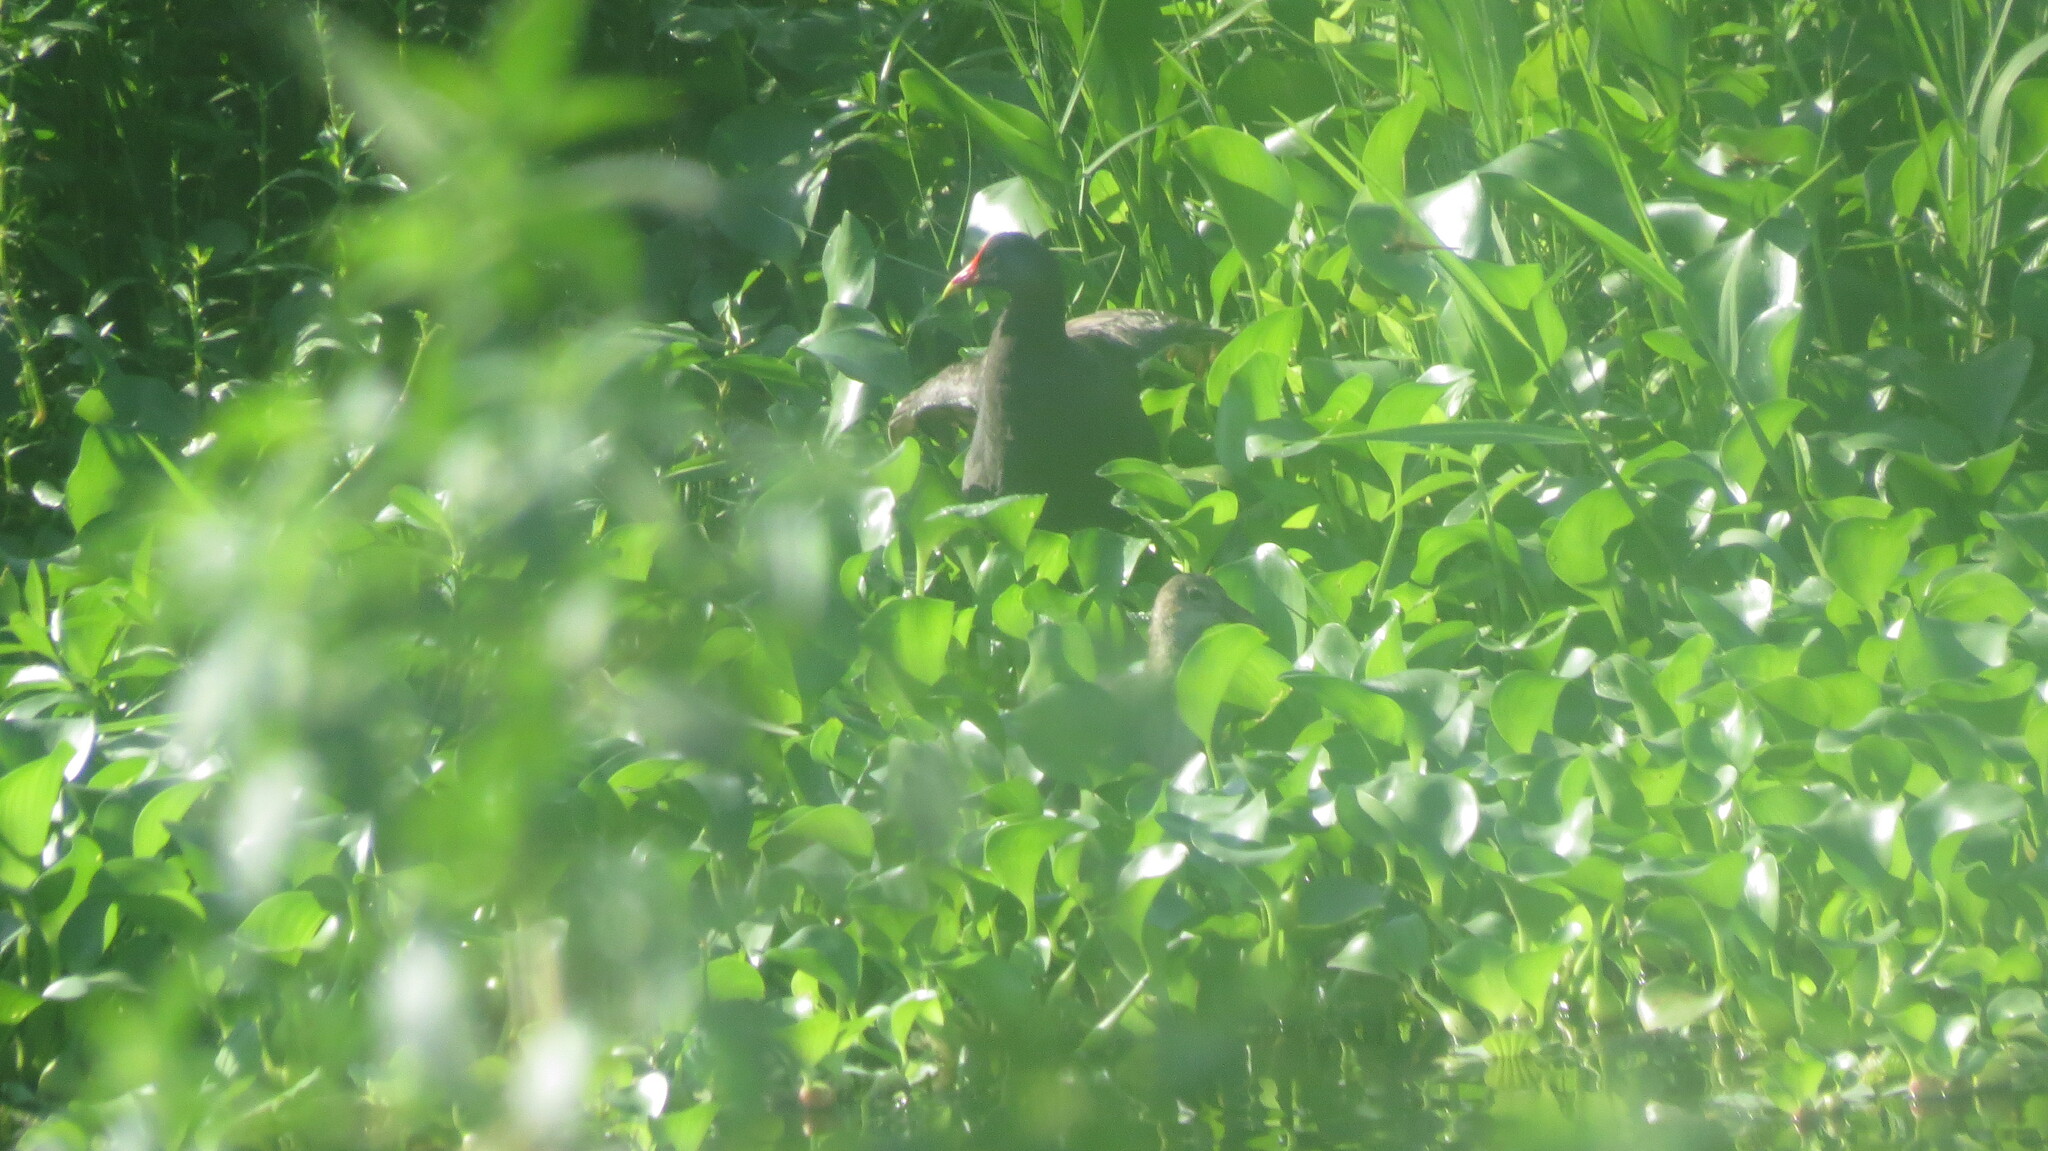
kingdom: Animalia
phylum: Chordata
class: Aves
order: Gruiformes
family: Rallidae
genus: Gallinula
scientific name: Gallinula chloropus
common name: Common moorhen
